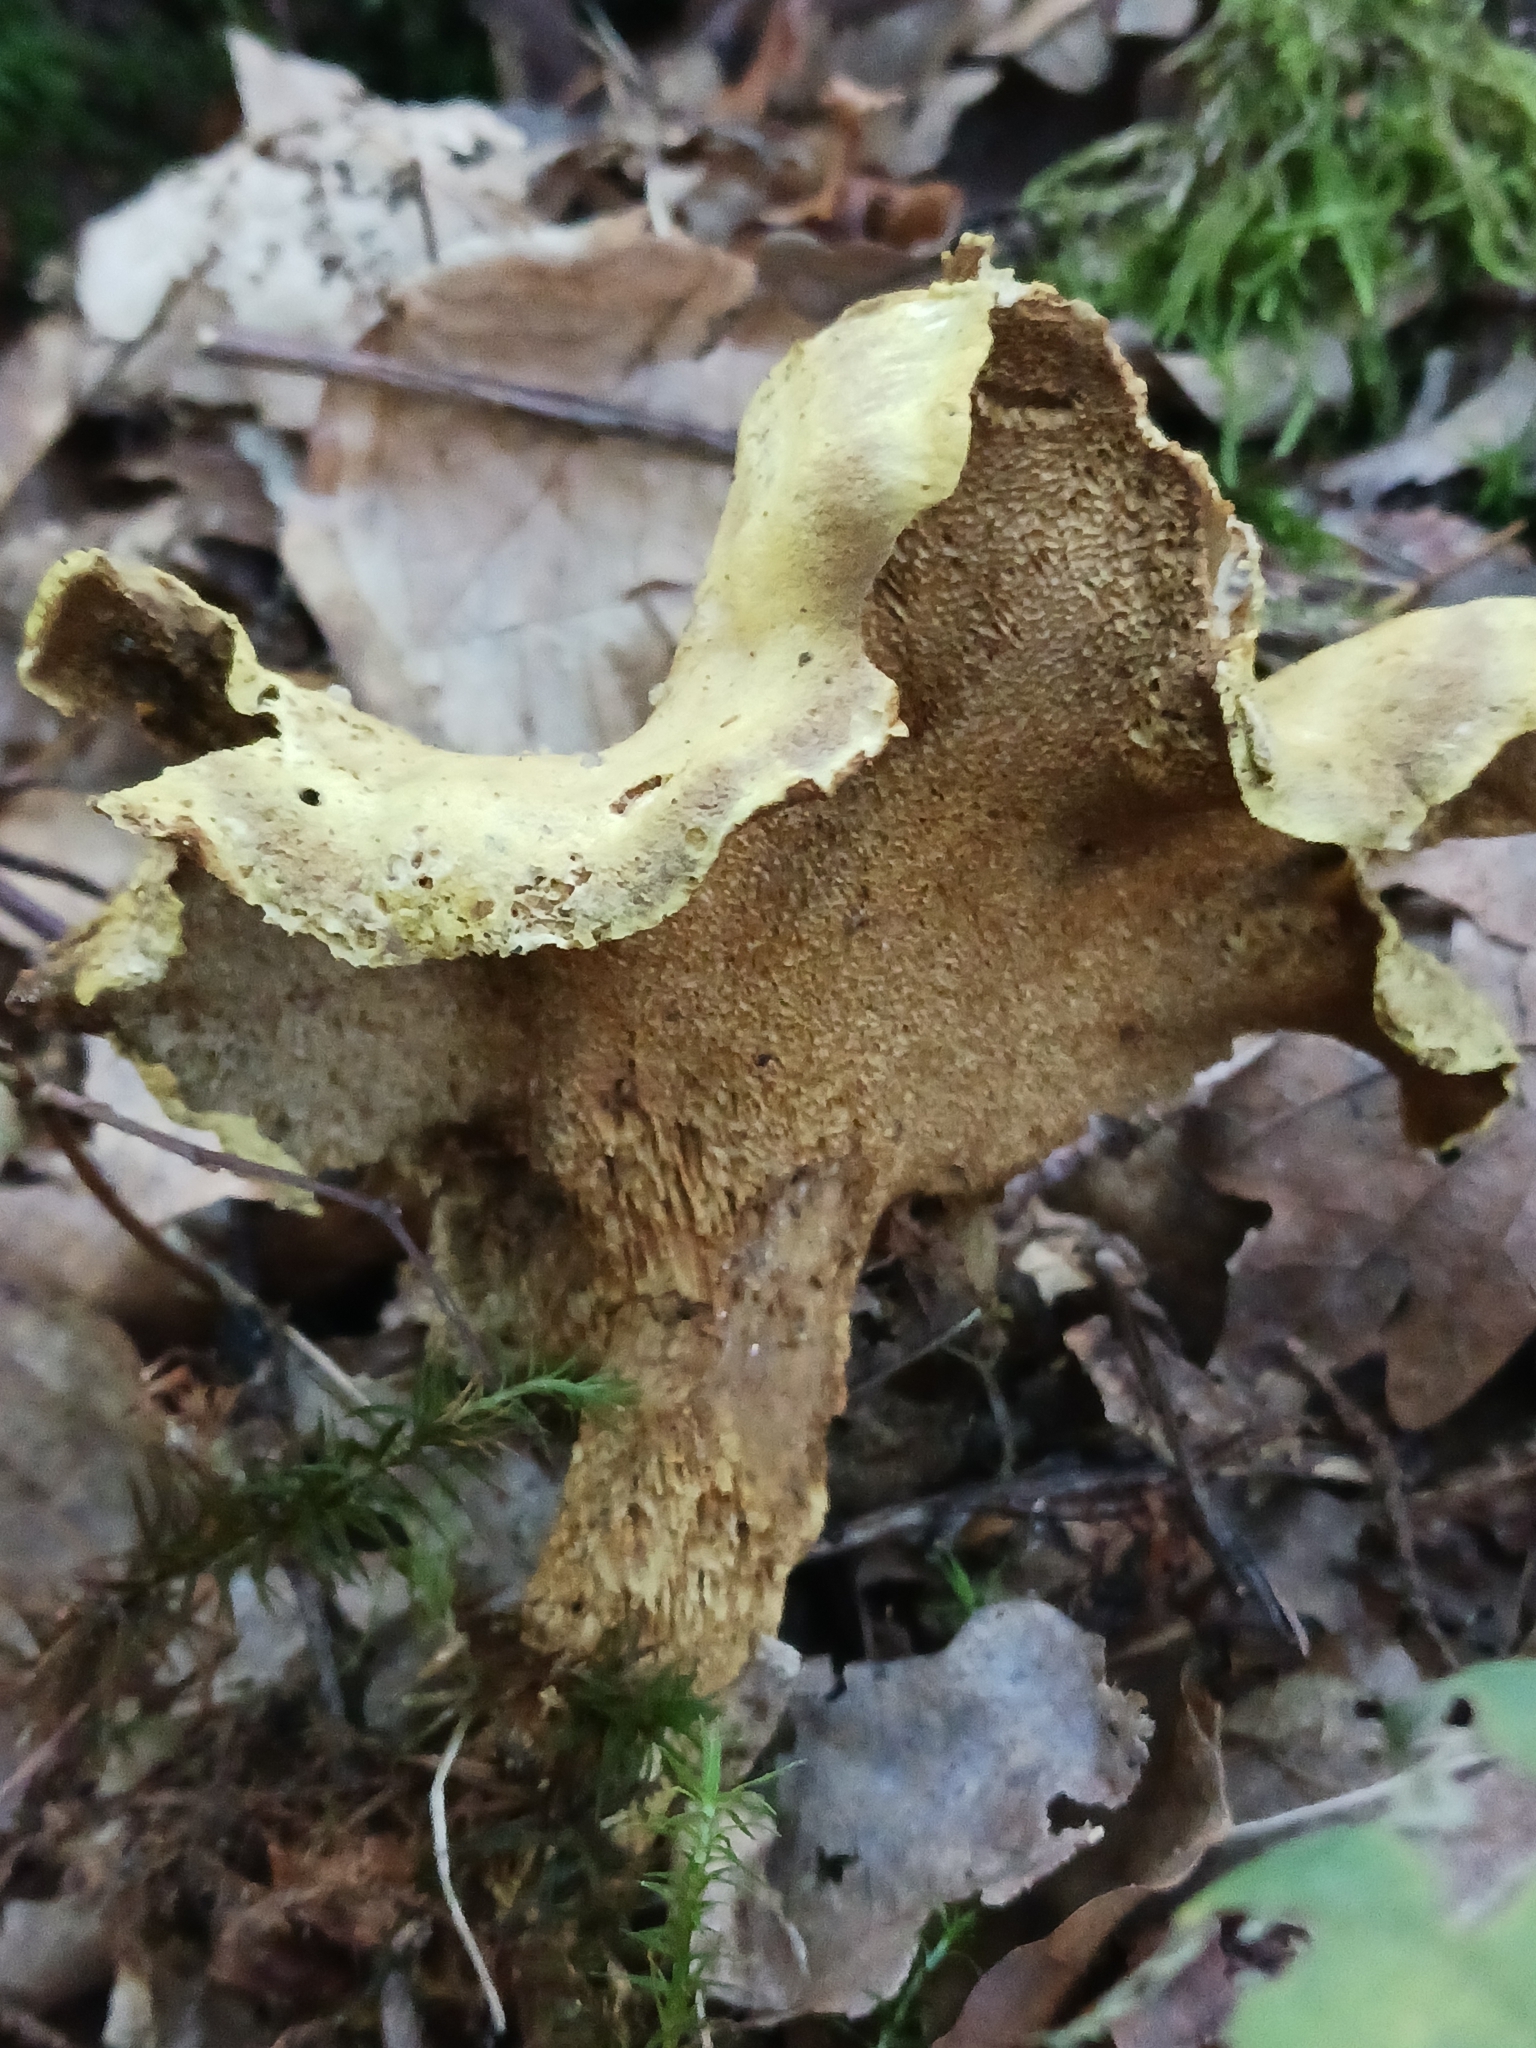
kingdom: Fungi
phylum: Basidiomycota
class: Agaricomycetes
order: Russulales
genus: Laeticutis
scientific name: Laeticutis cristata
